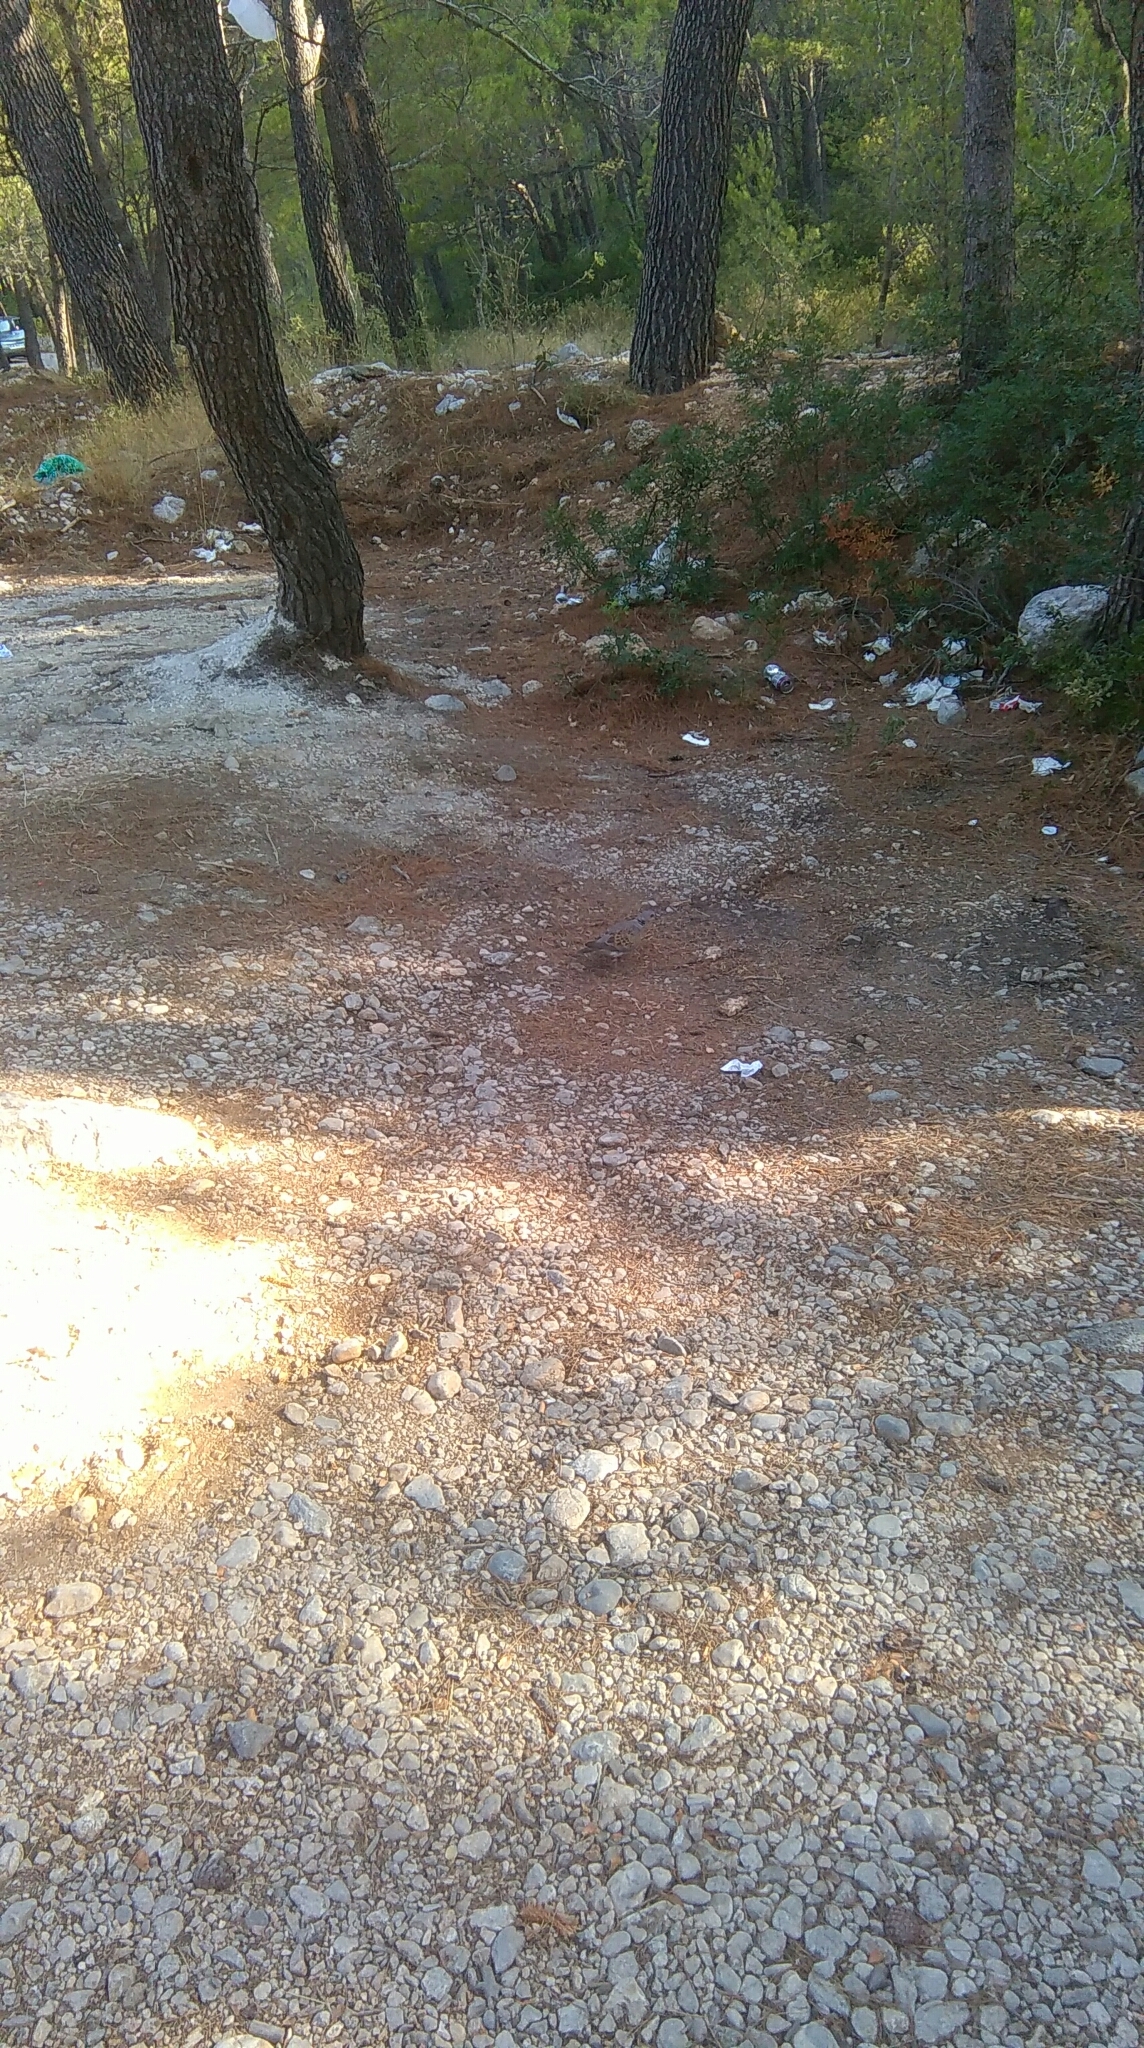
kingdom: Animalia
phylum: Chordata
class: Aves
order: Columbiformes
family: Columbidae
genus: Streptopelia
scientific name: Streptopelia turtur
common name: European turtle dove
